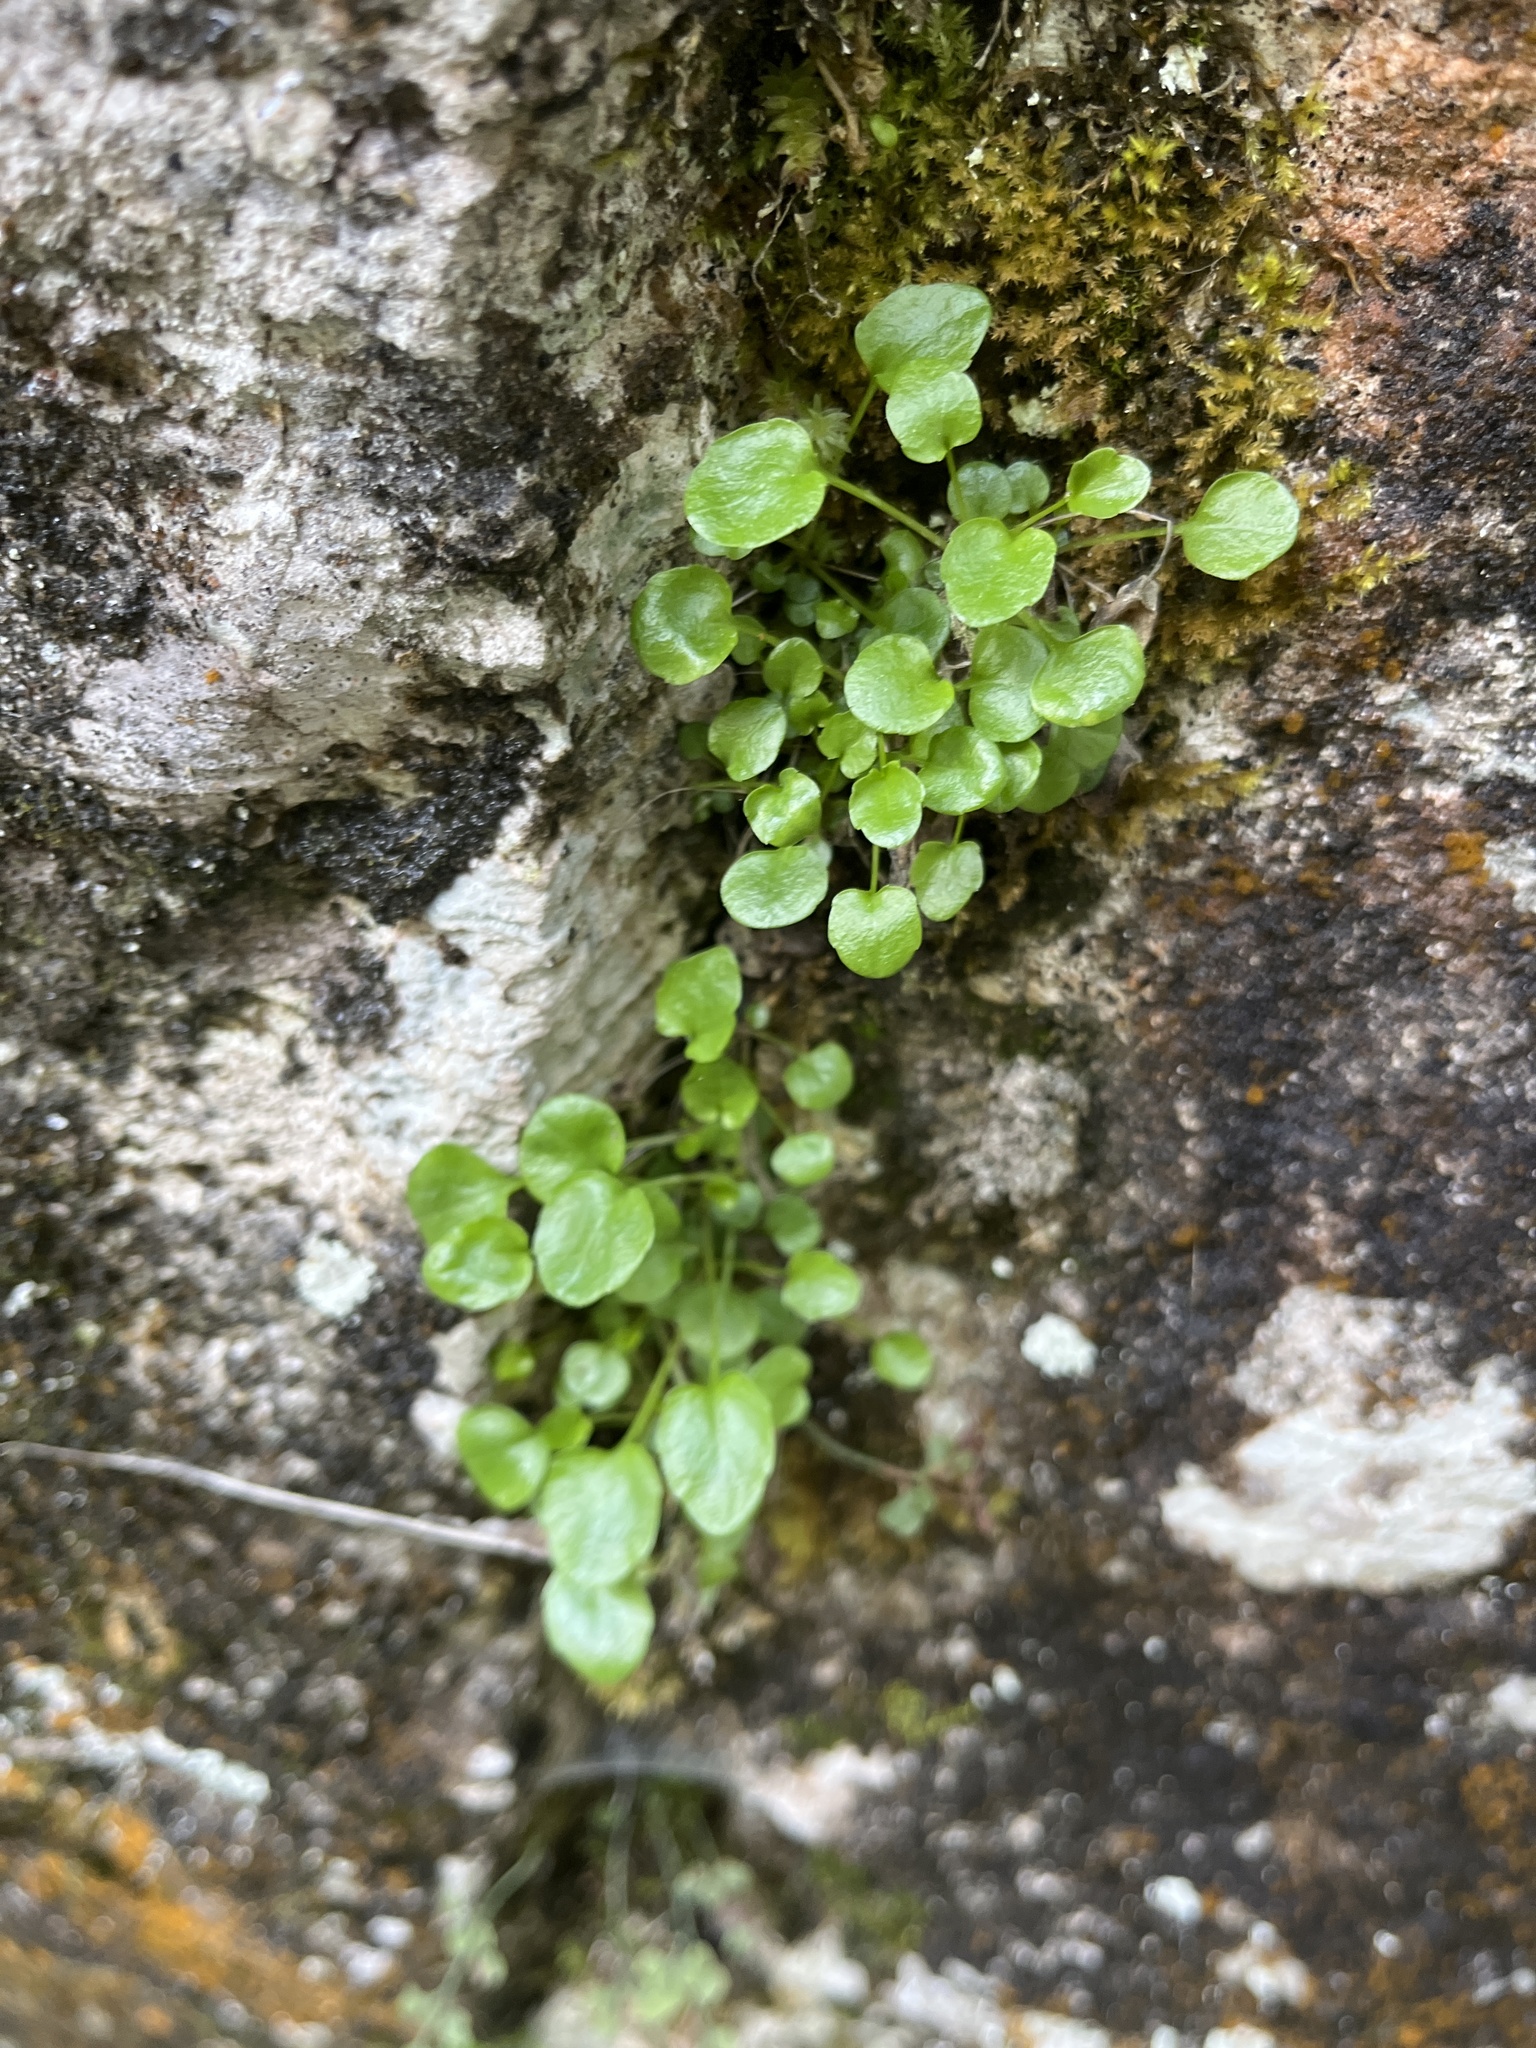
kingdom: Plantae
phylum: Tracheophyta
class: Magnoliopsida
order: Asterales
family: Campanulaceae
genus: Campanula
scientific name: Campanula cochleariifolia
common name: Fairies'-thimbles
